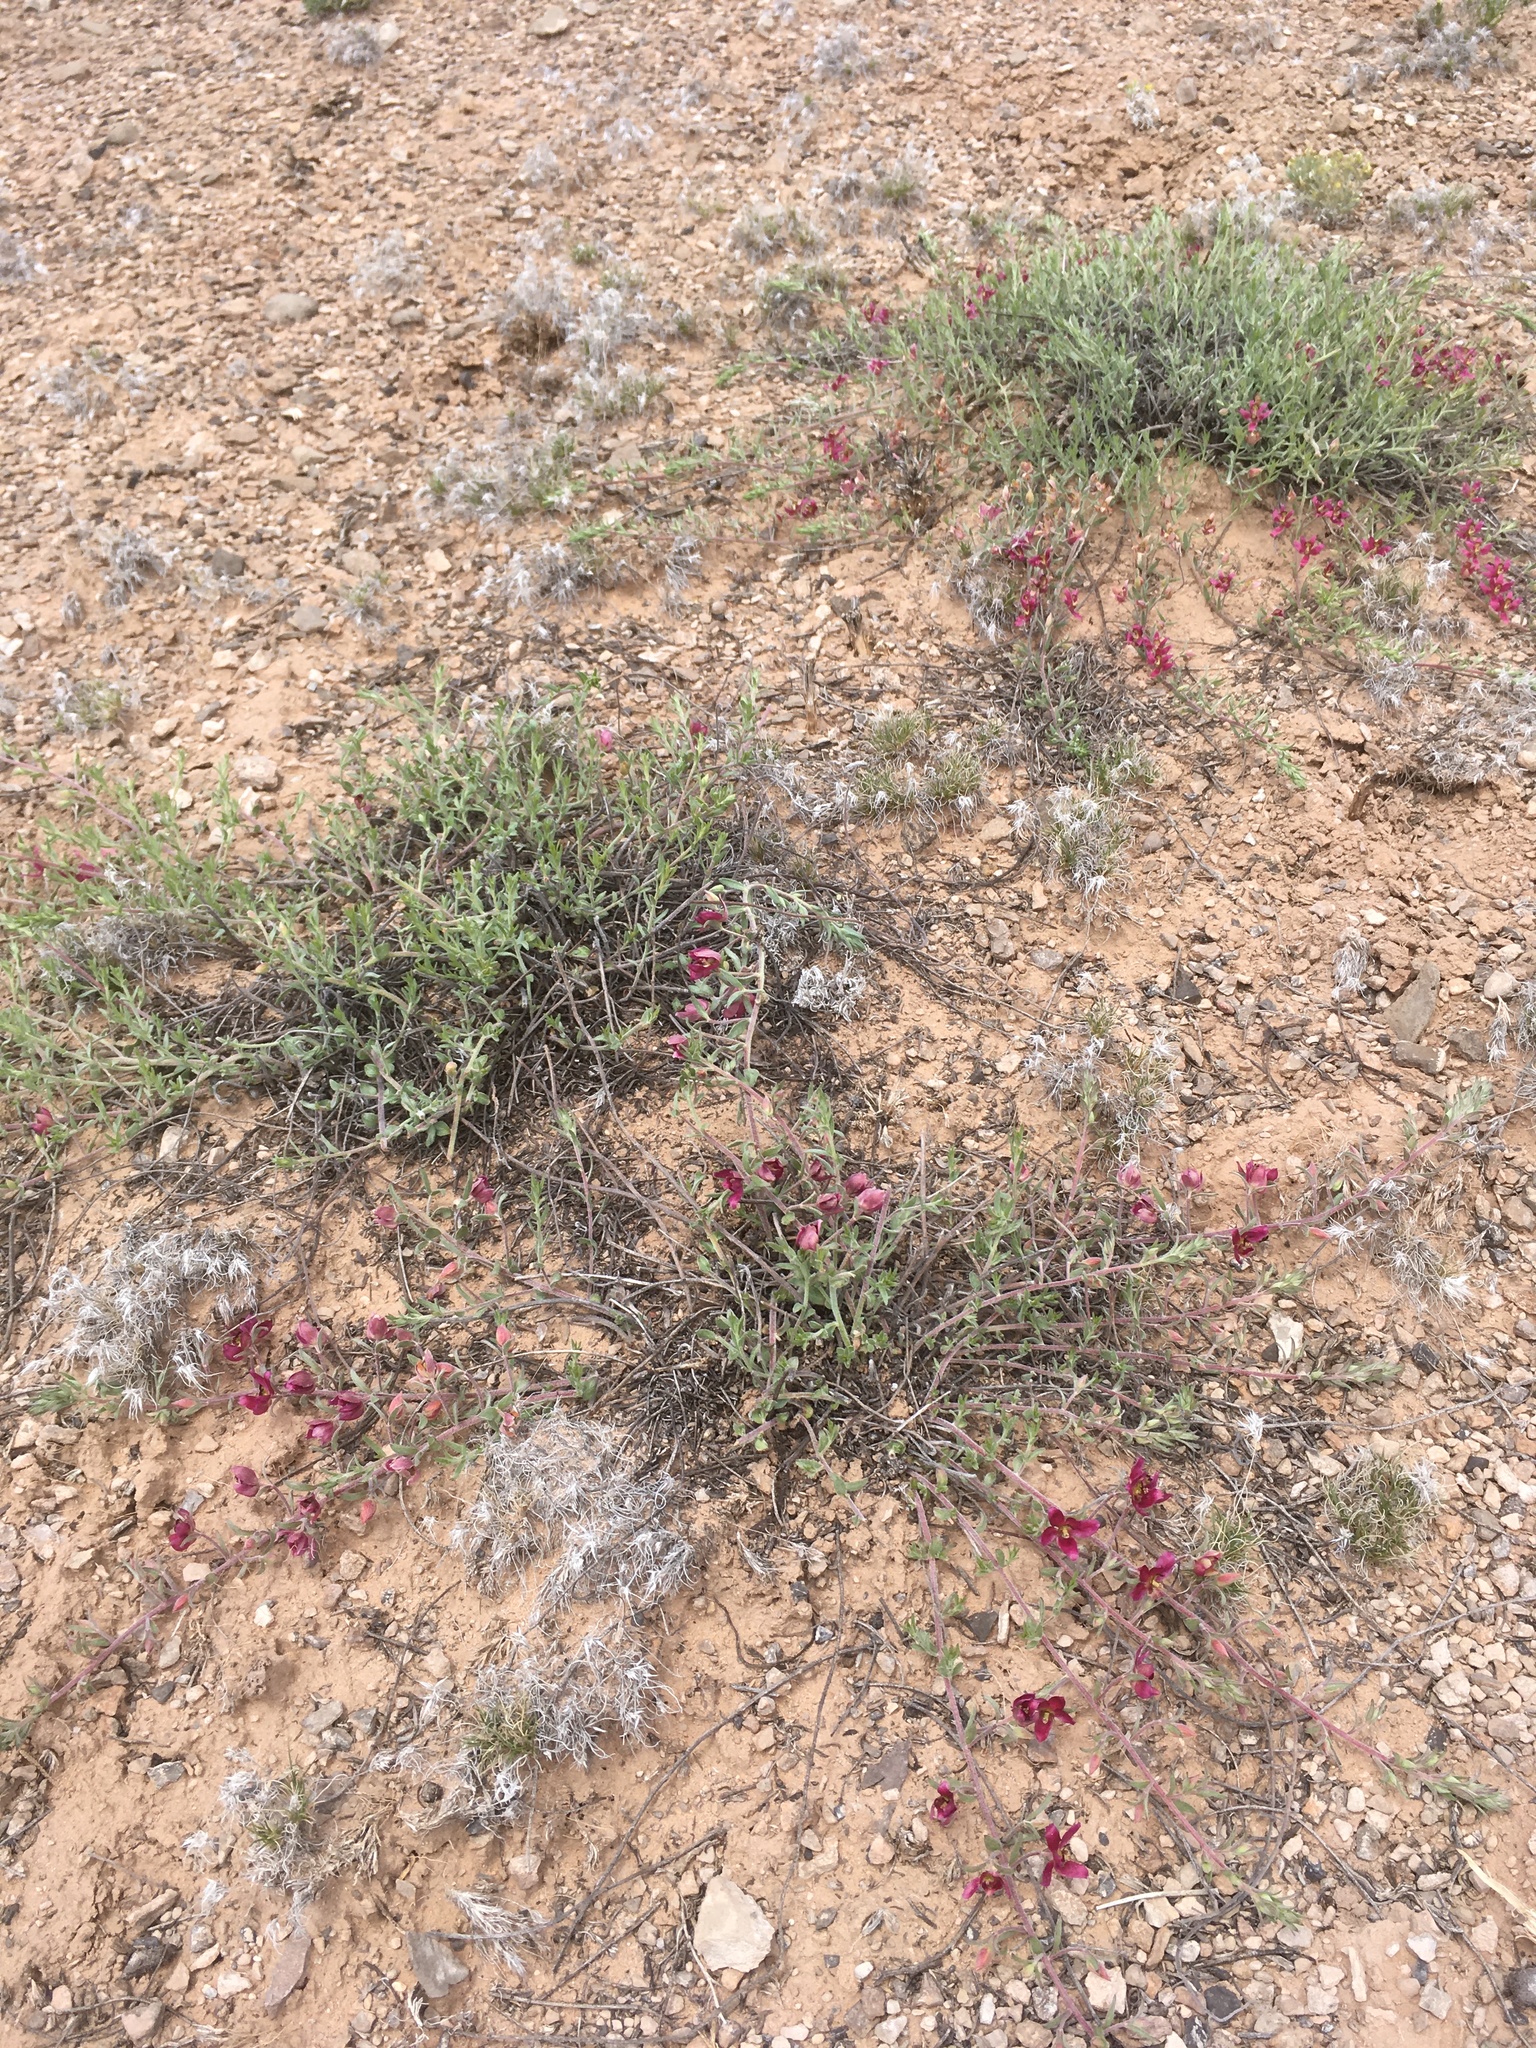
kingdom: Plantae
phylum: Tracheophyta
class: Magnoliopsida
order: Zygophyllales
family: Krameriaceae
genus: Krameria
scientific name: Krameria lanceolata
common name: Ratany
